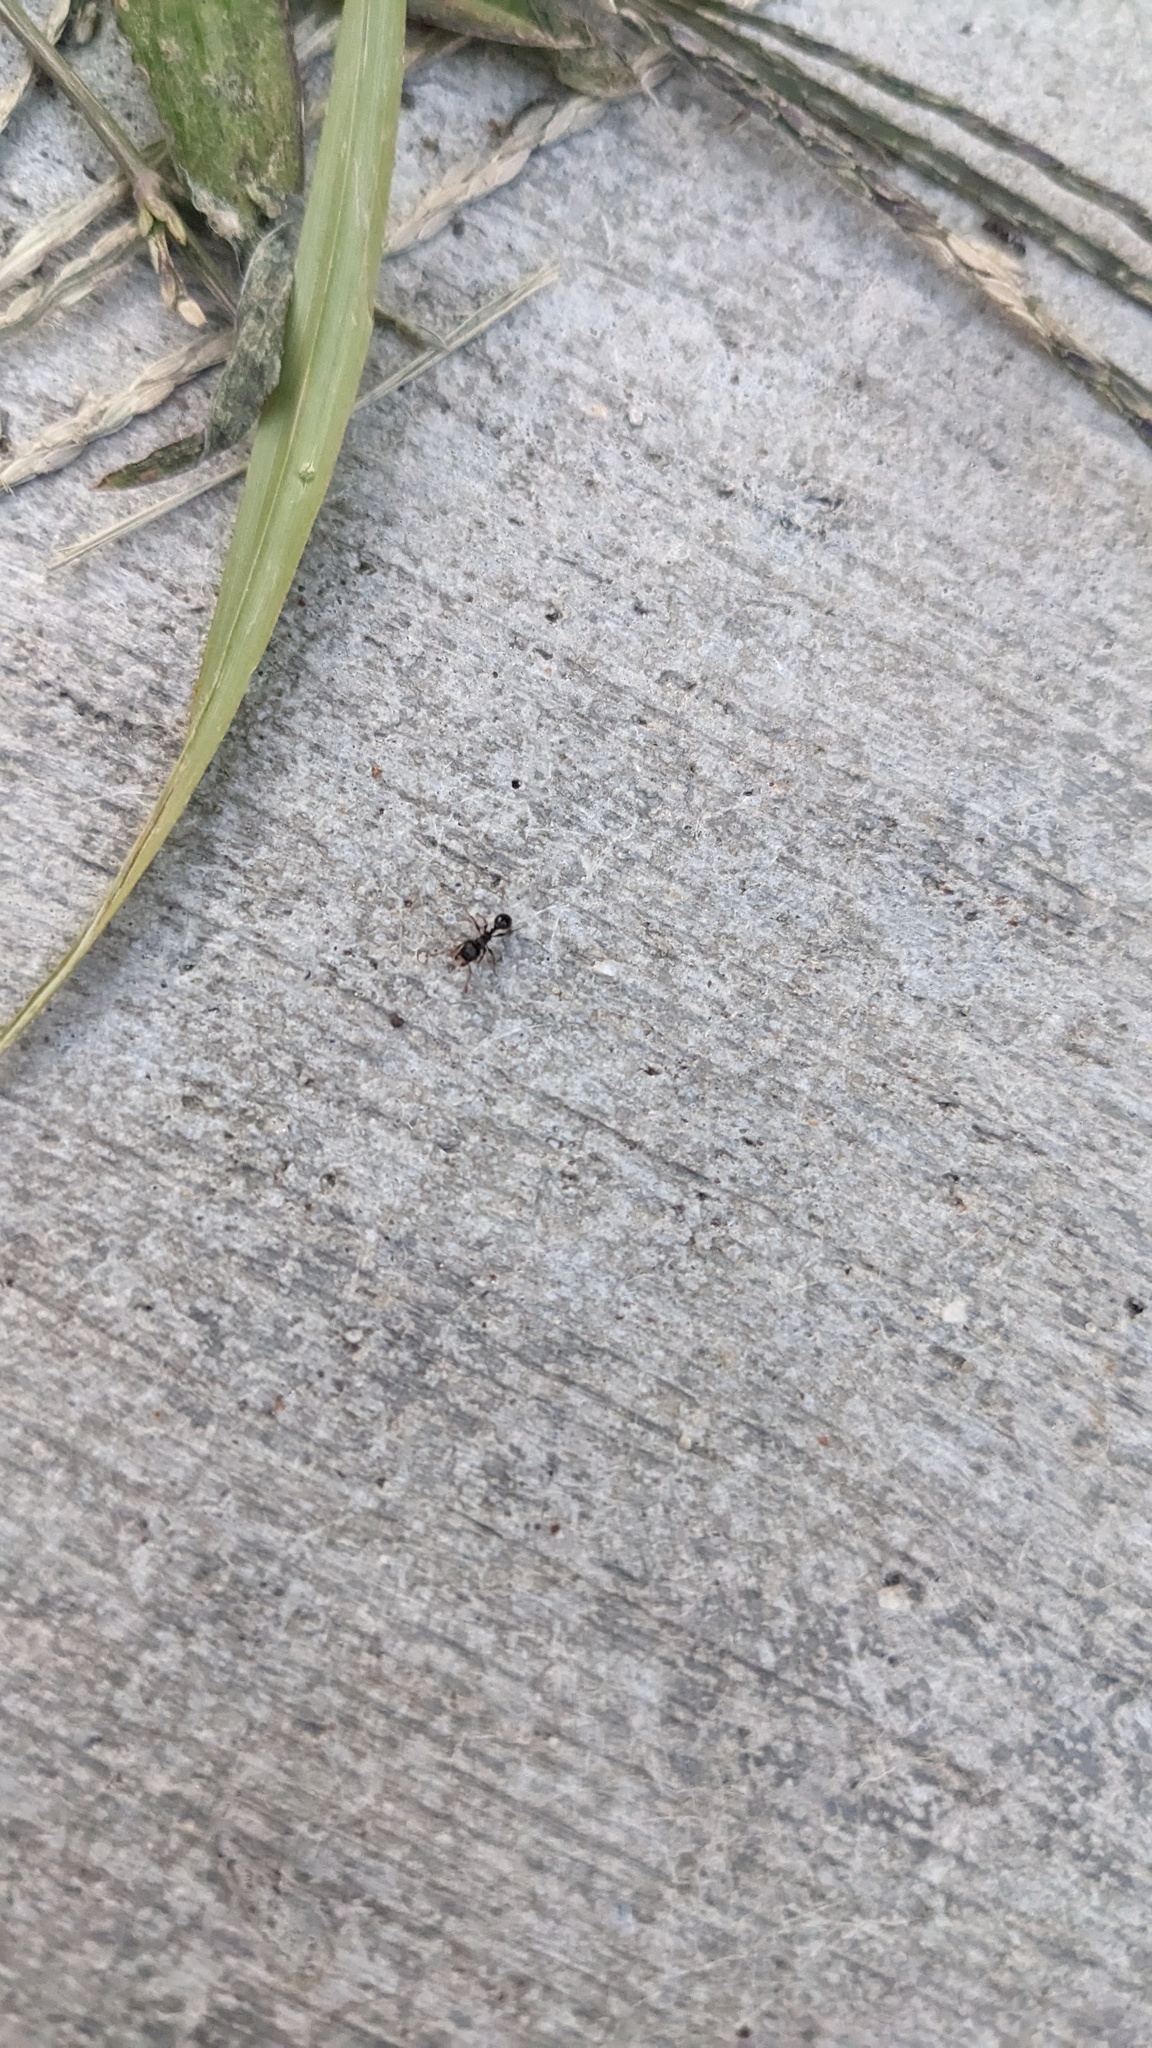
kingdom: Animalia
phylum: Arthropoda
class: Insecta
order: Hymenoptera
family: Formicidae
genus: Tetramorium
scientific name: Tetramorium immigrans
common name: Pavement ant
